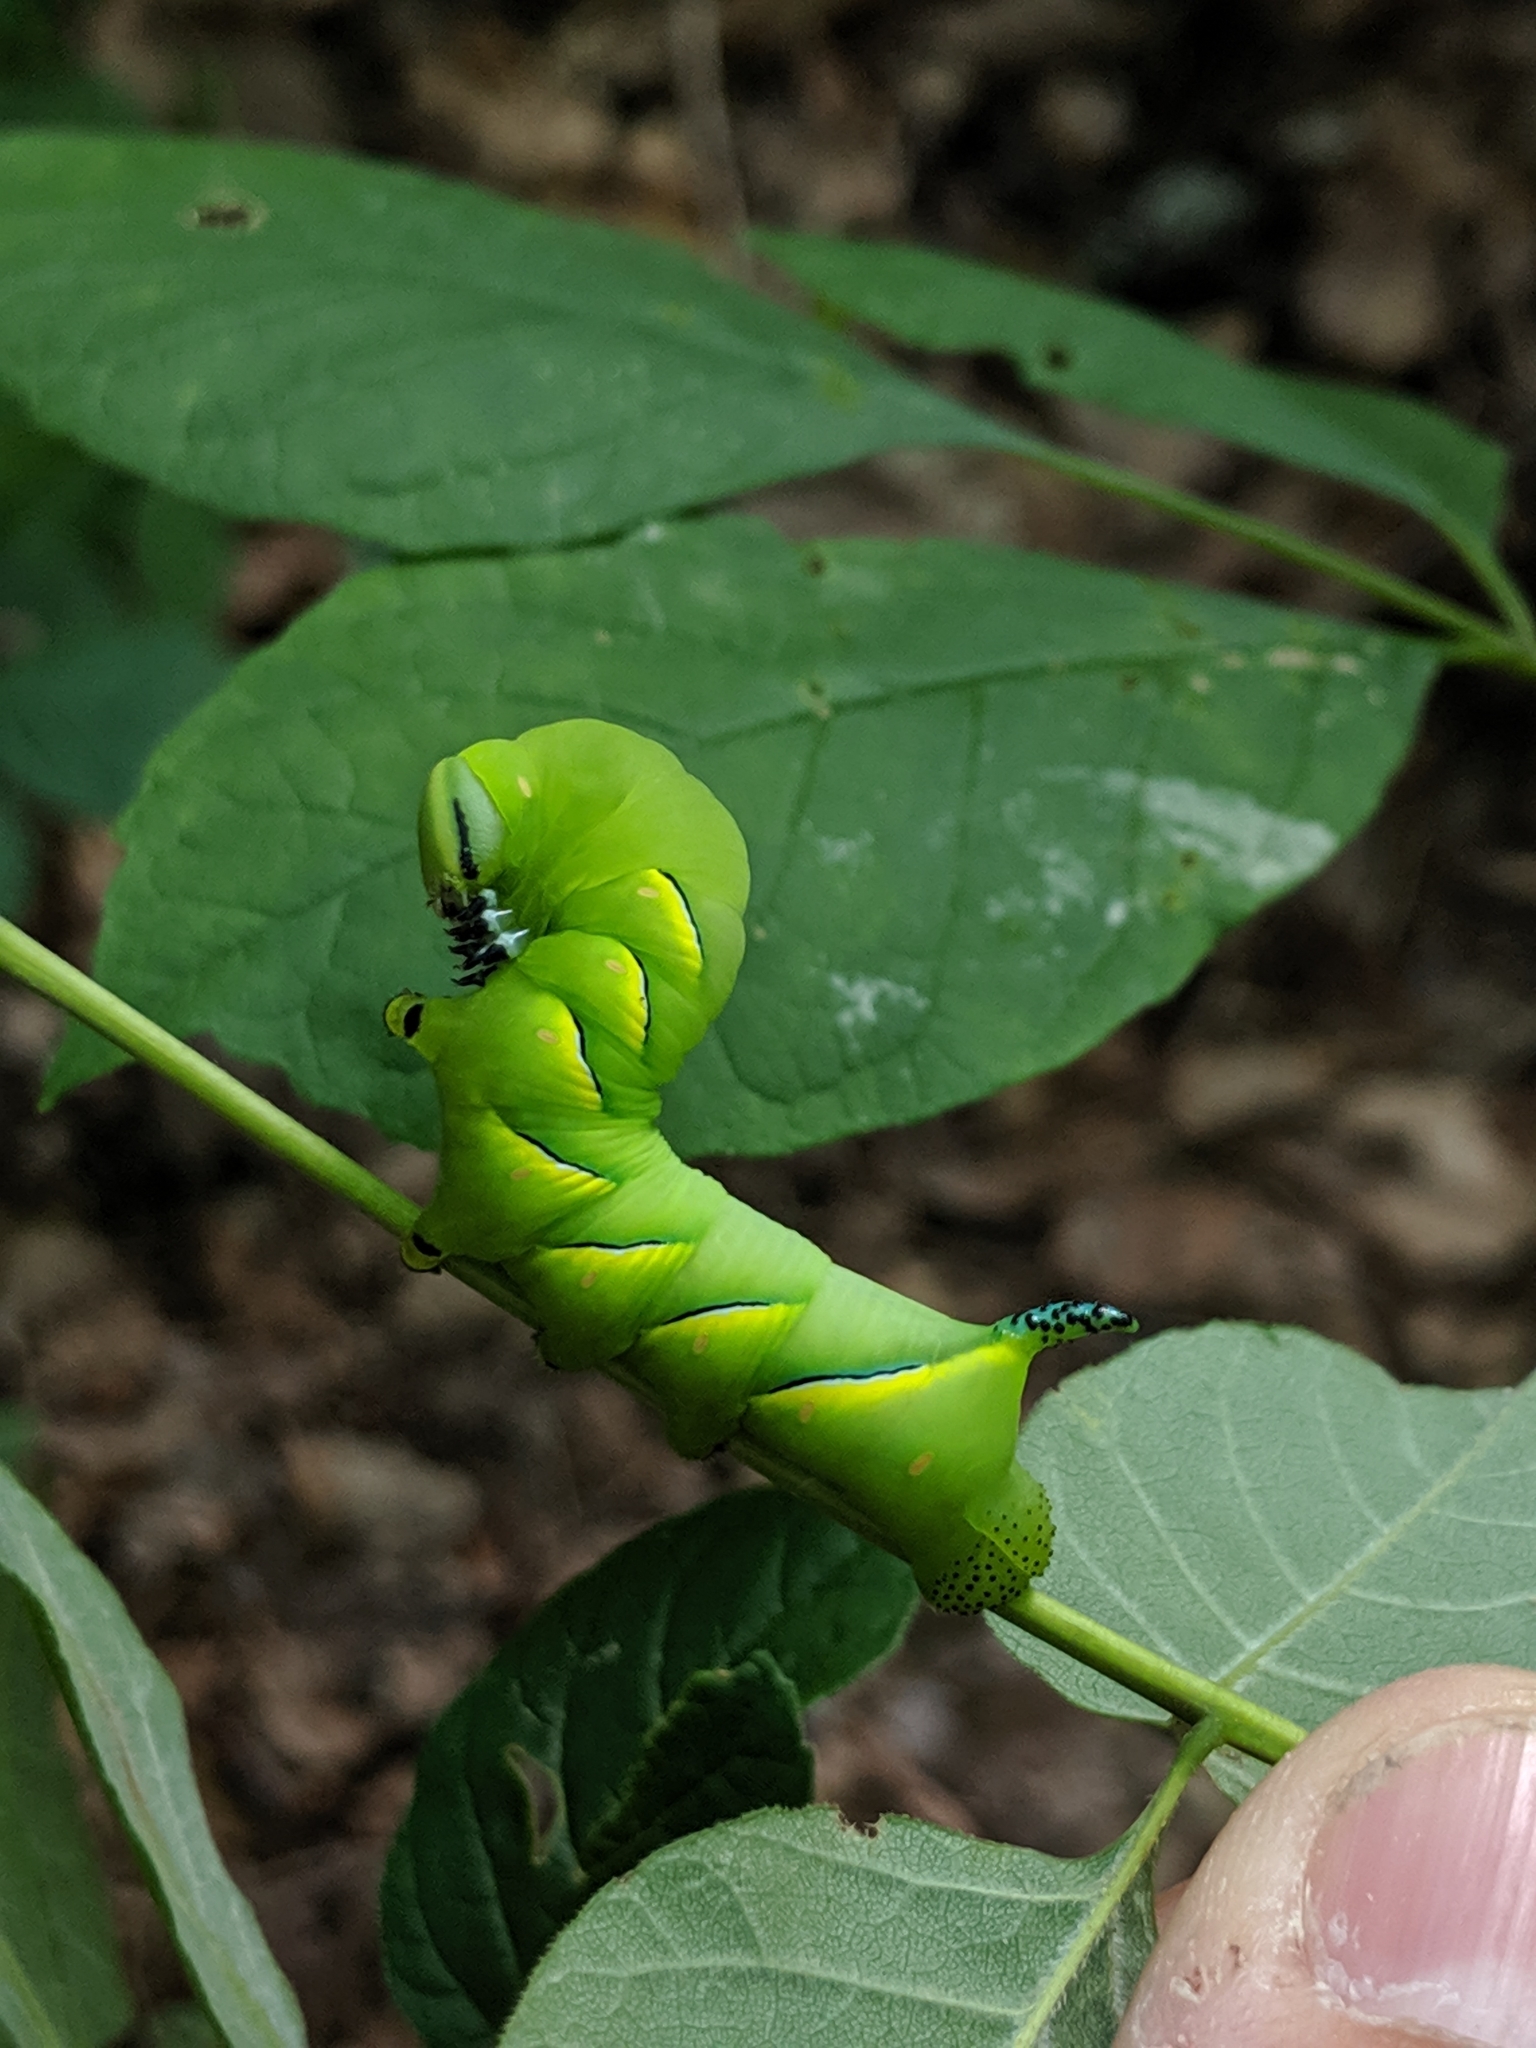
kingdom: Animalia
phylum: Arthropoda
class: Insecta
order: Lepidoptera
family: Sphingidae
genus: Sphinx
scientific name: Sphinx kalmiae
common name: Laurel sphinx
